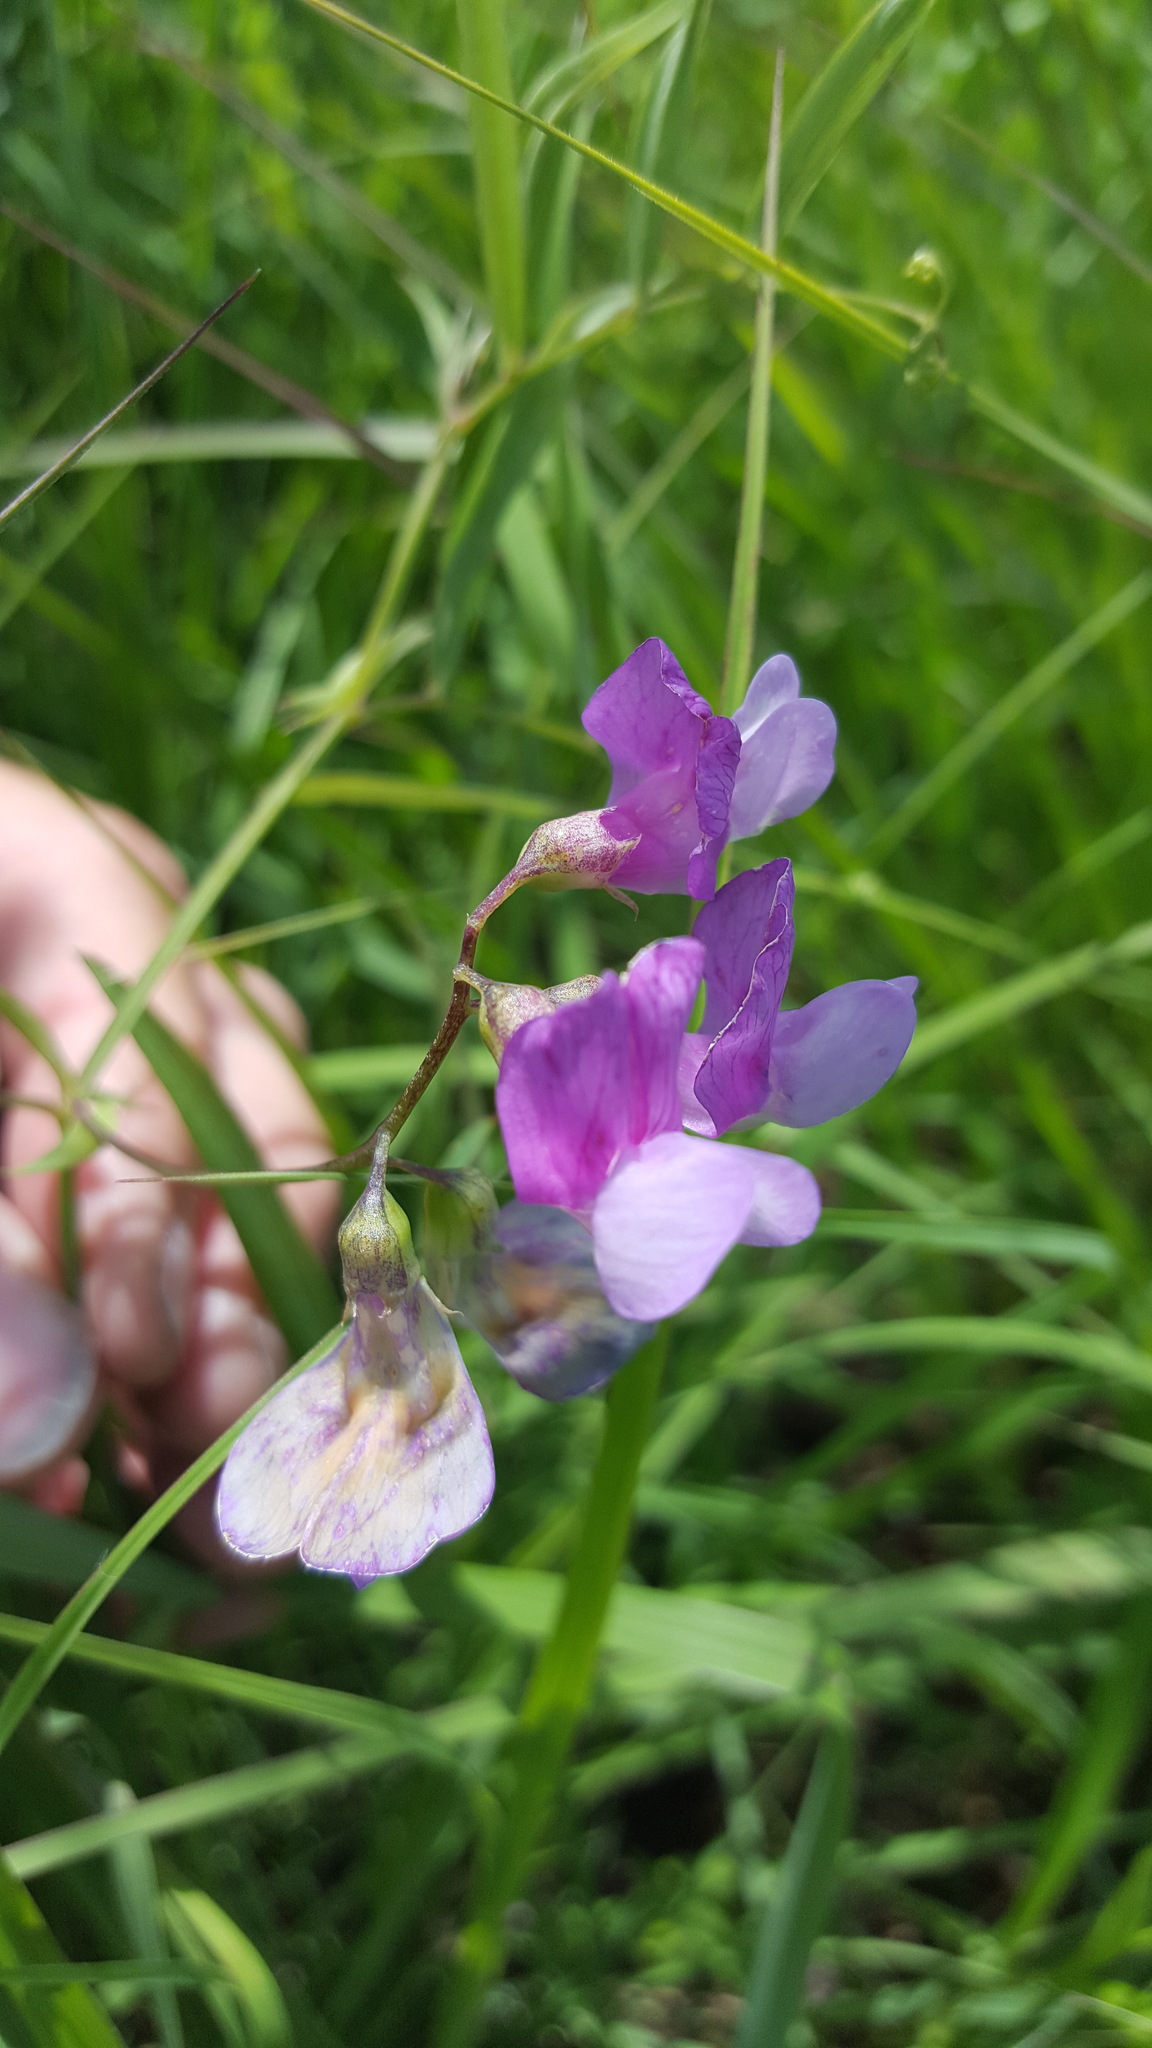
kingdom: Plantae
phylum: Tracheophyta
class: Magnoliopsida
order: Fabales
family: Fabaceae
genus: Lathyrus
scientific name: Lathyrus palustris
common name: Marsh pea
